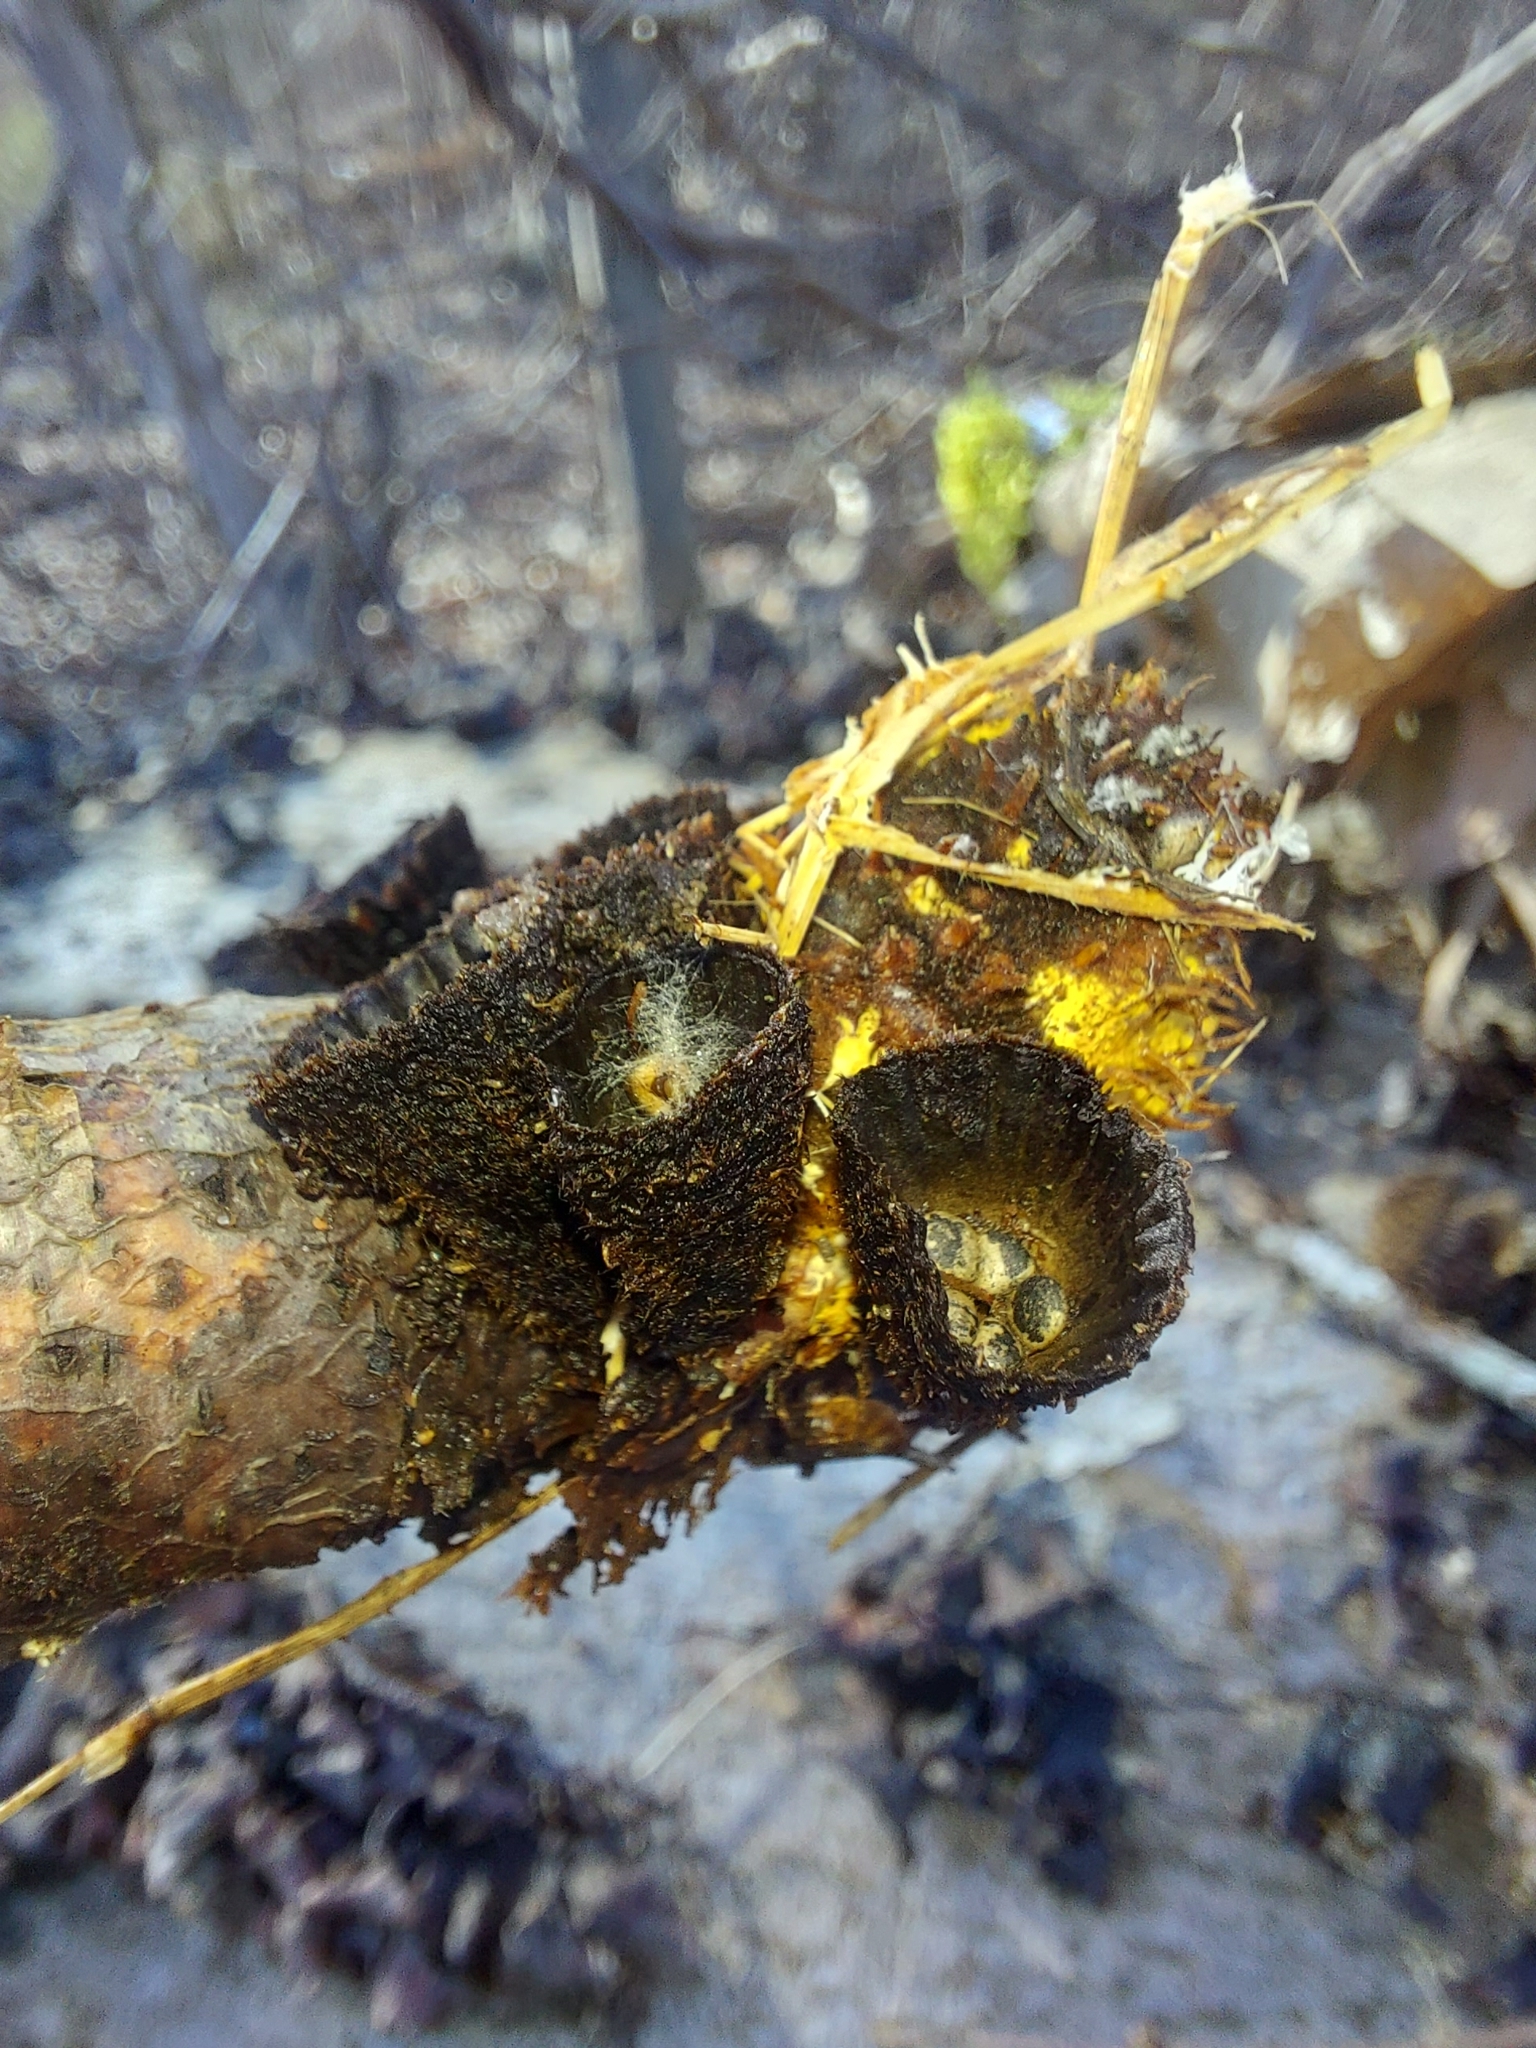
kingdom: Fungi
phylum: Basidiomycota
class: Agaricomycetes
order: Agaricales
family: Agaricaceae
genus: Cyathus
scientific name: Cyathus striatus
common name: Fluted bird's nest
